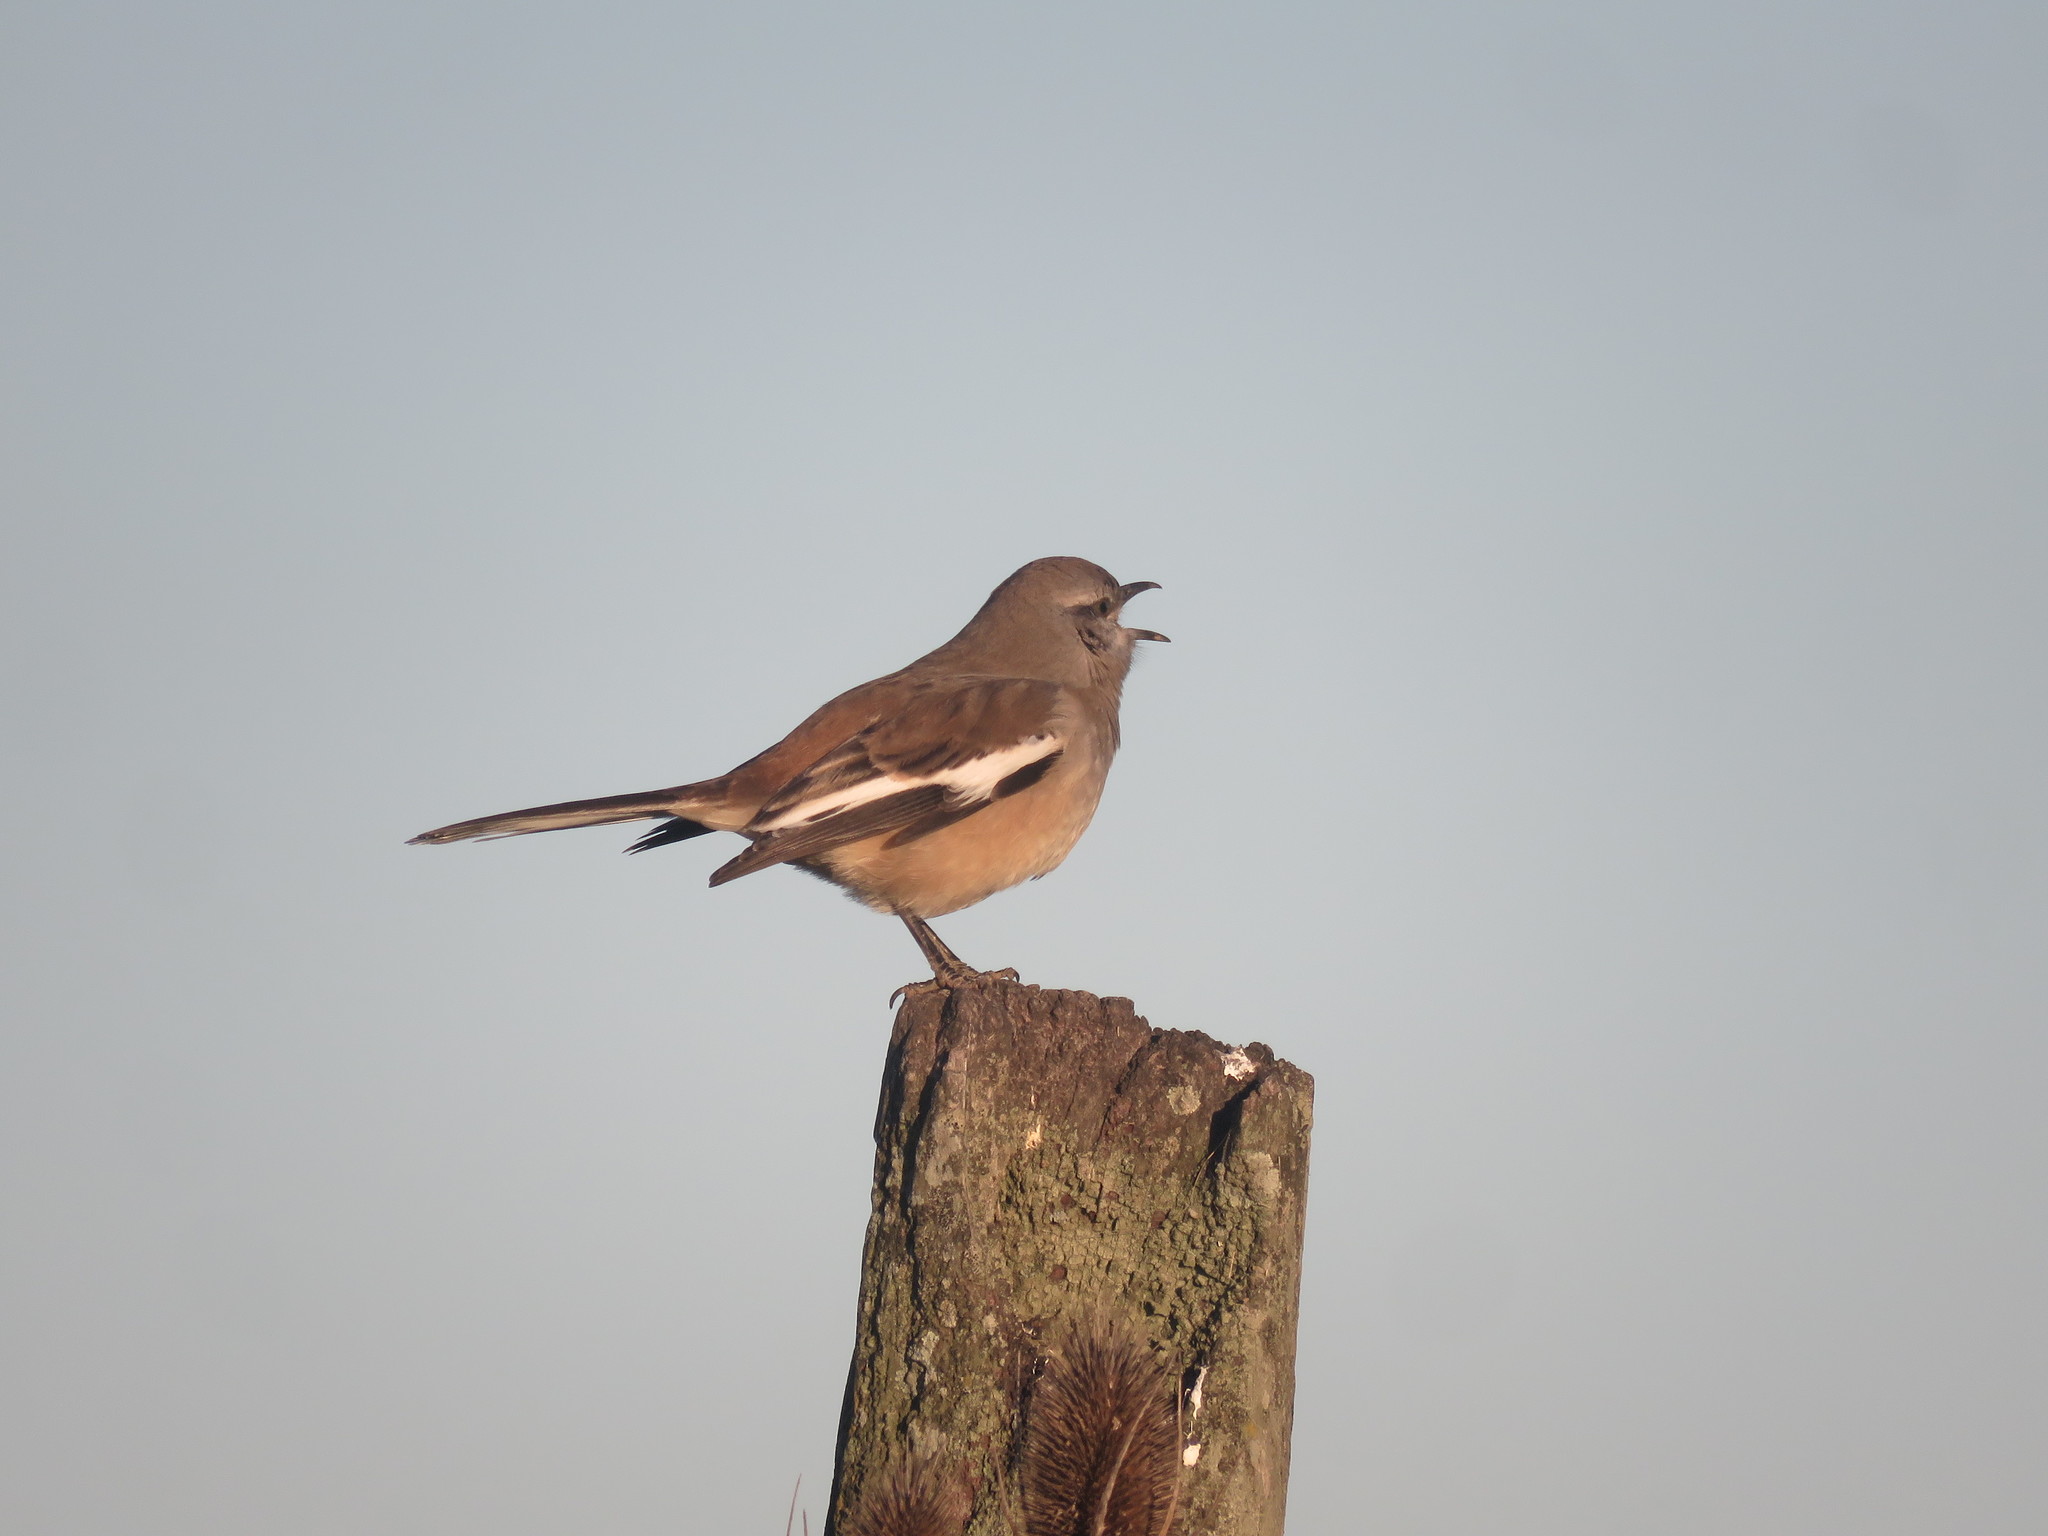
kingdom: Animalia
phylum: Chordata
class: Aves
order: Passeriformes
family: Mimidae
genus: Mimus
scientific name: Mimus triurus
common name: White-banded mockingbird
